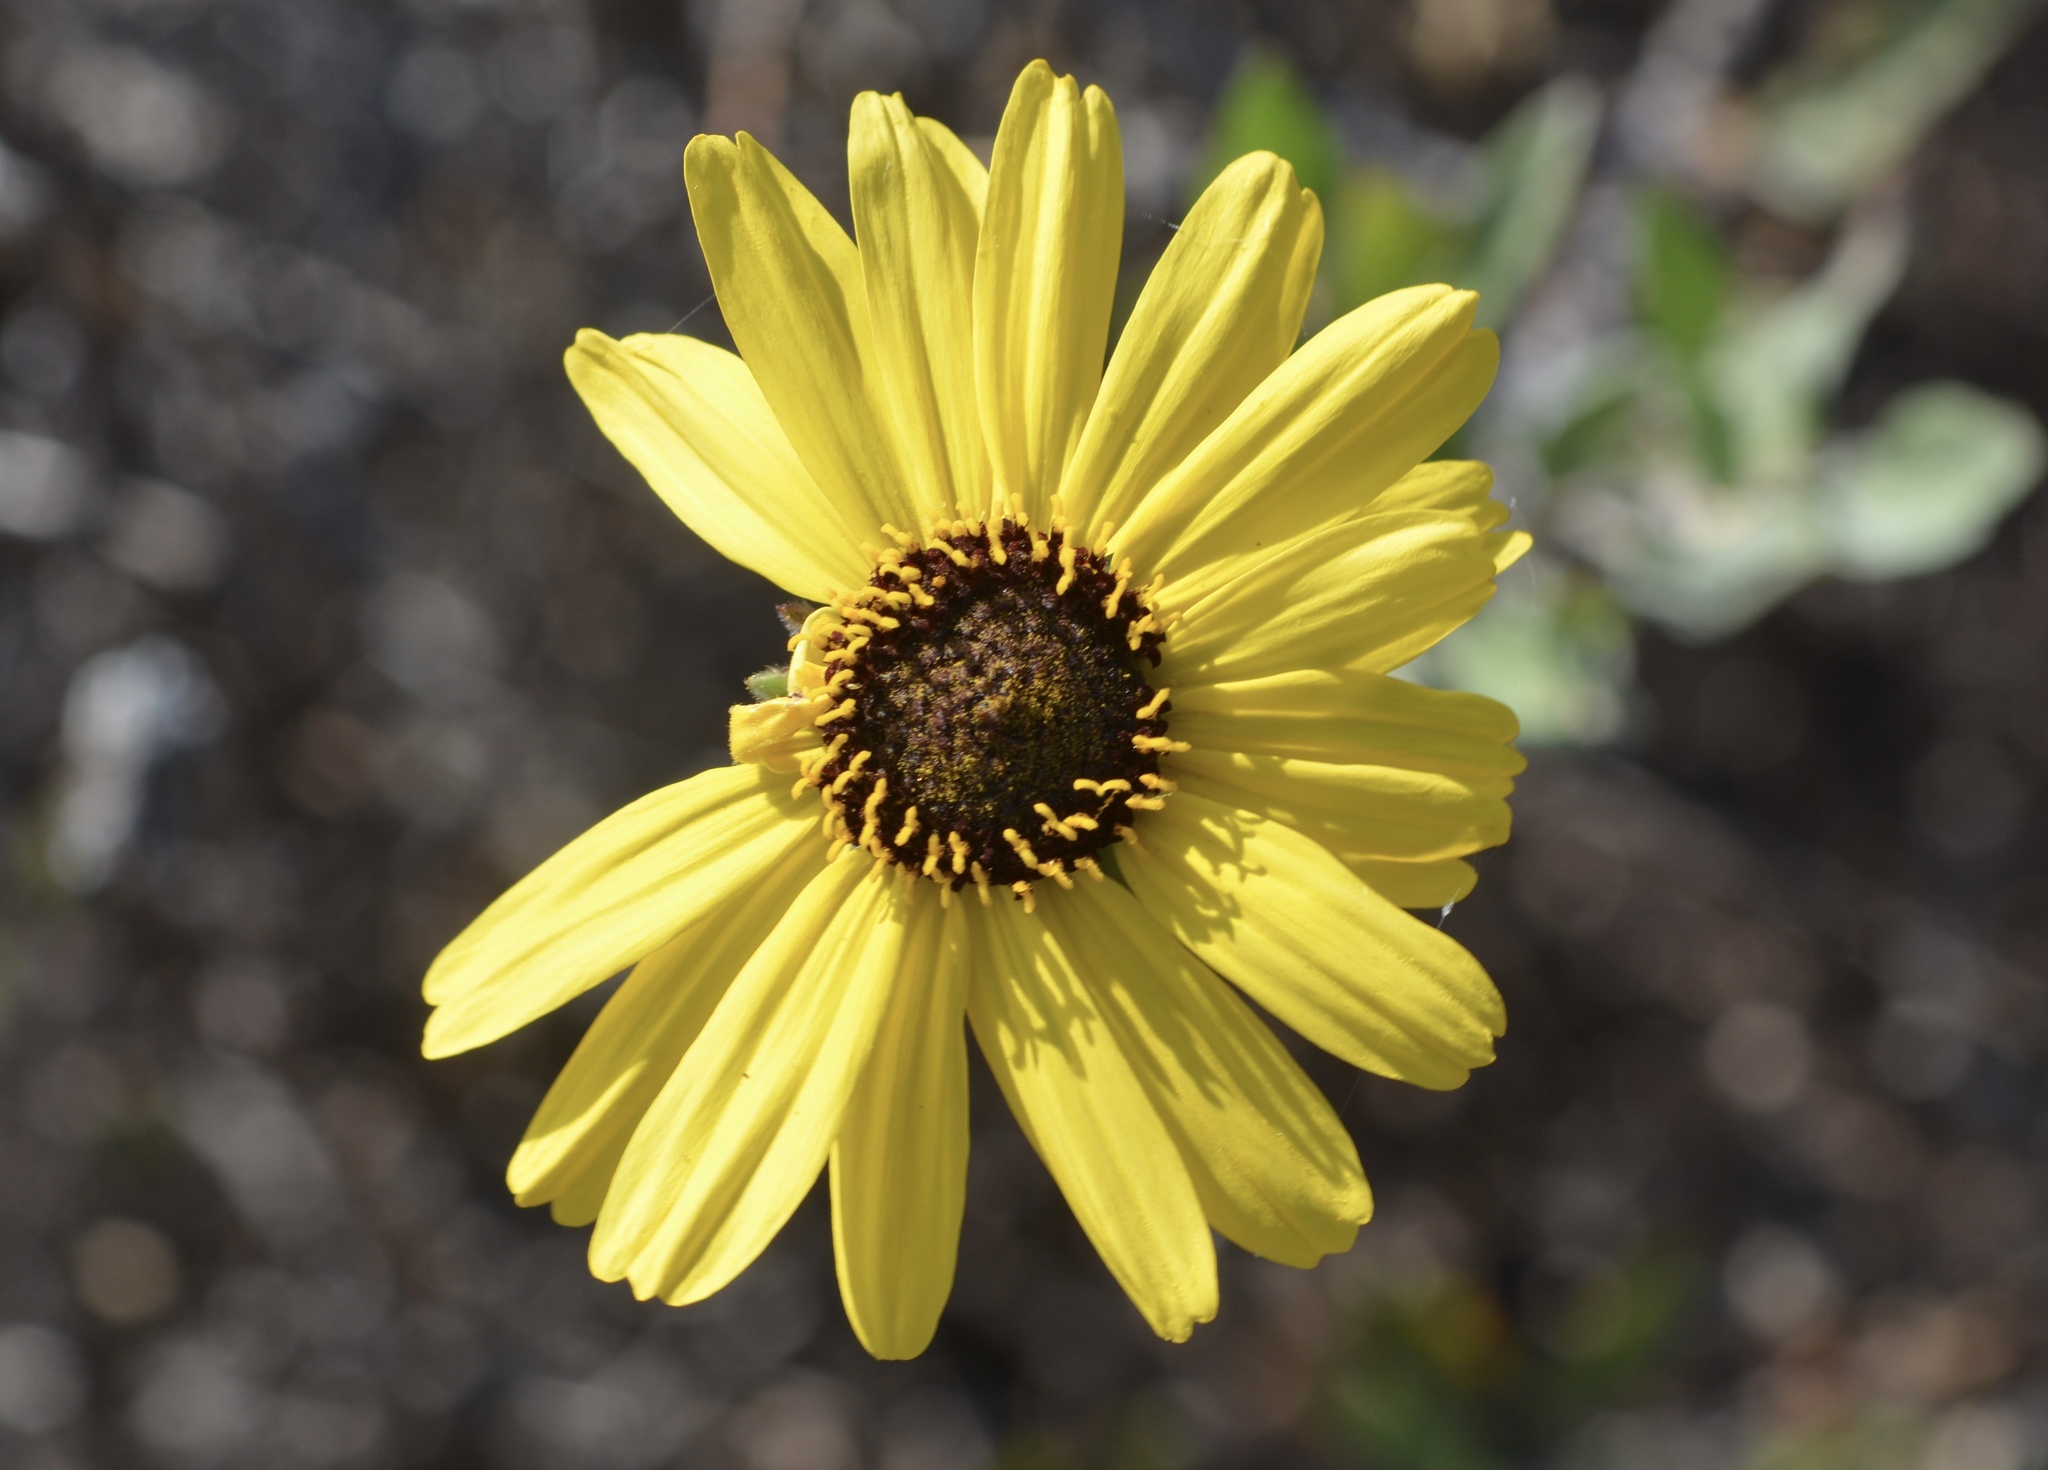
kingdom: Plantae
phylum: Tracheophyta
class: Magnoliopsida
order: Asterales
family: Asteraceae
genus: Encelia
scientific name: Encelia californica
